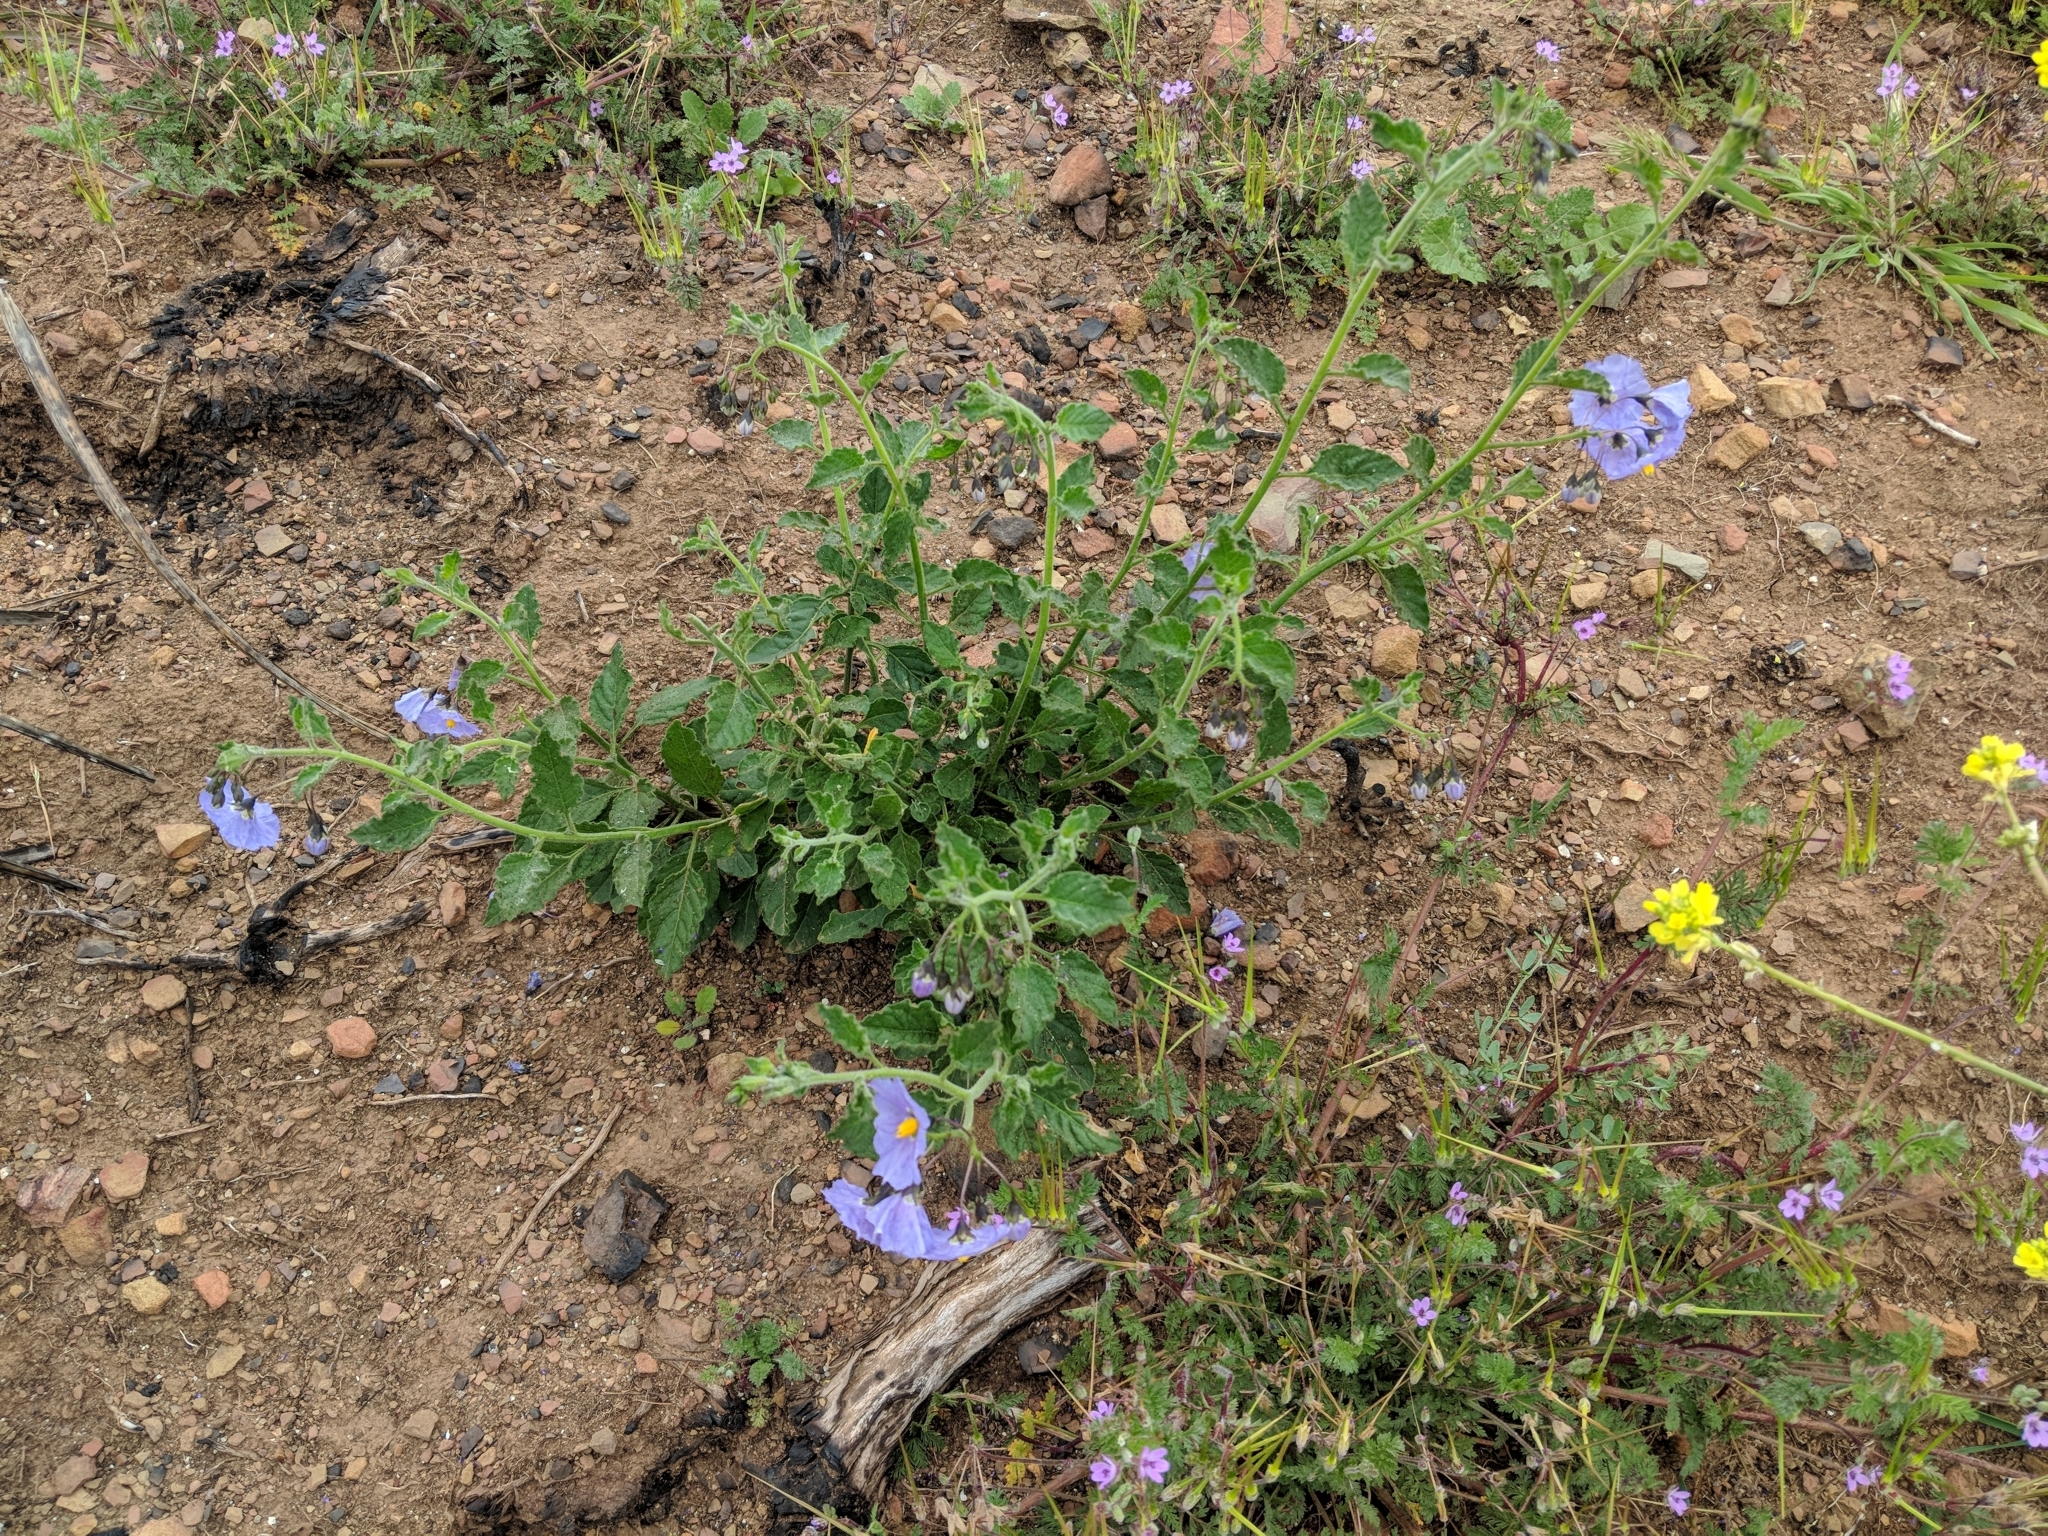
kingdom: Plantae
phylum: Tracheophyta
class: Magnoliopsida
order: Solanales
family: Solanaceae
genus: Solanum
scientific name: Solanum umbelliferum
